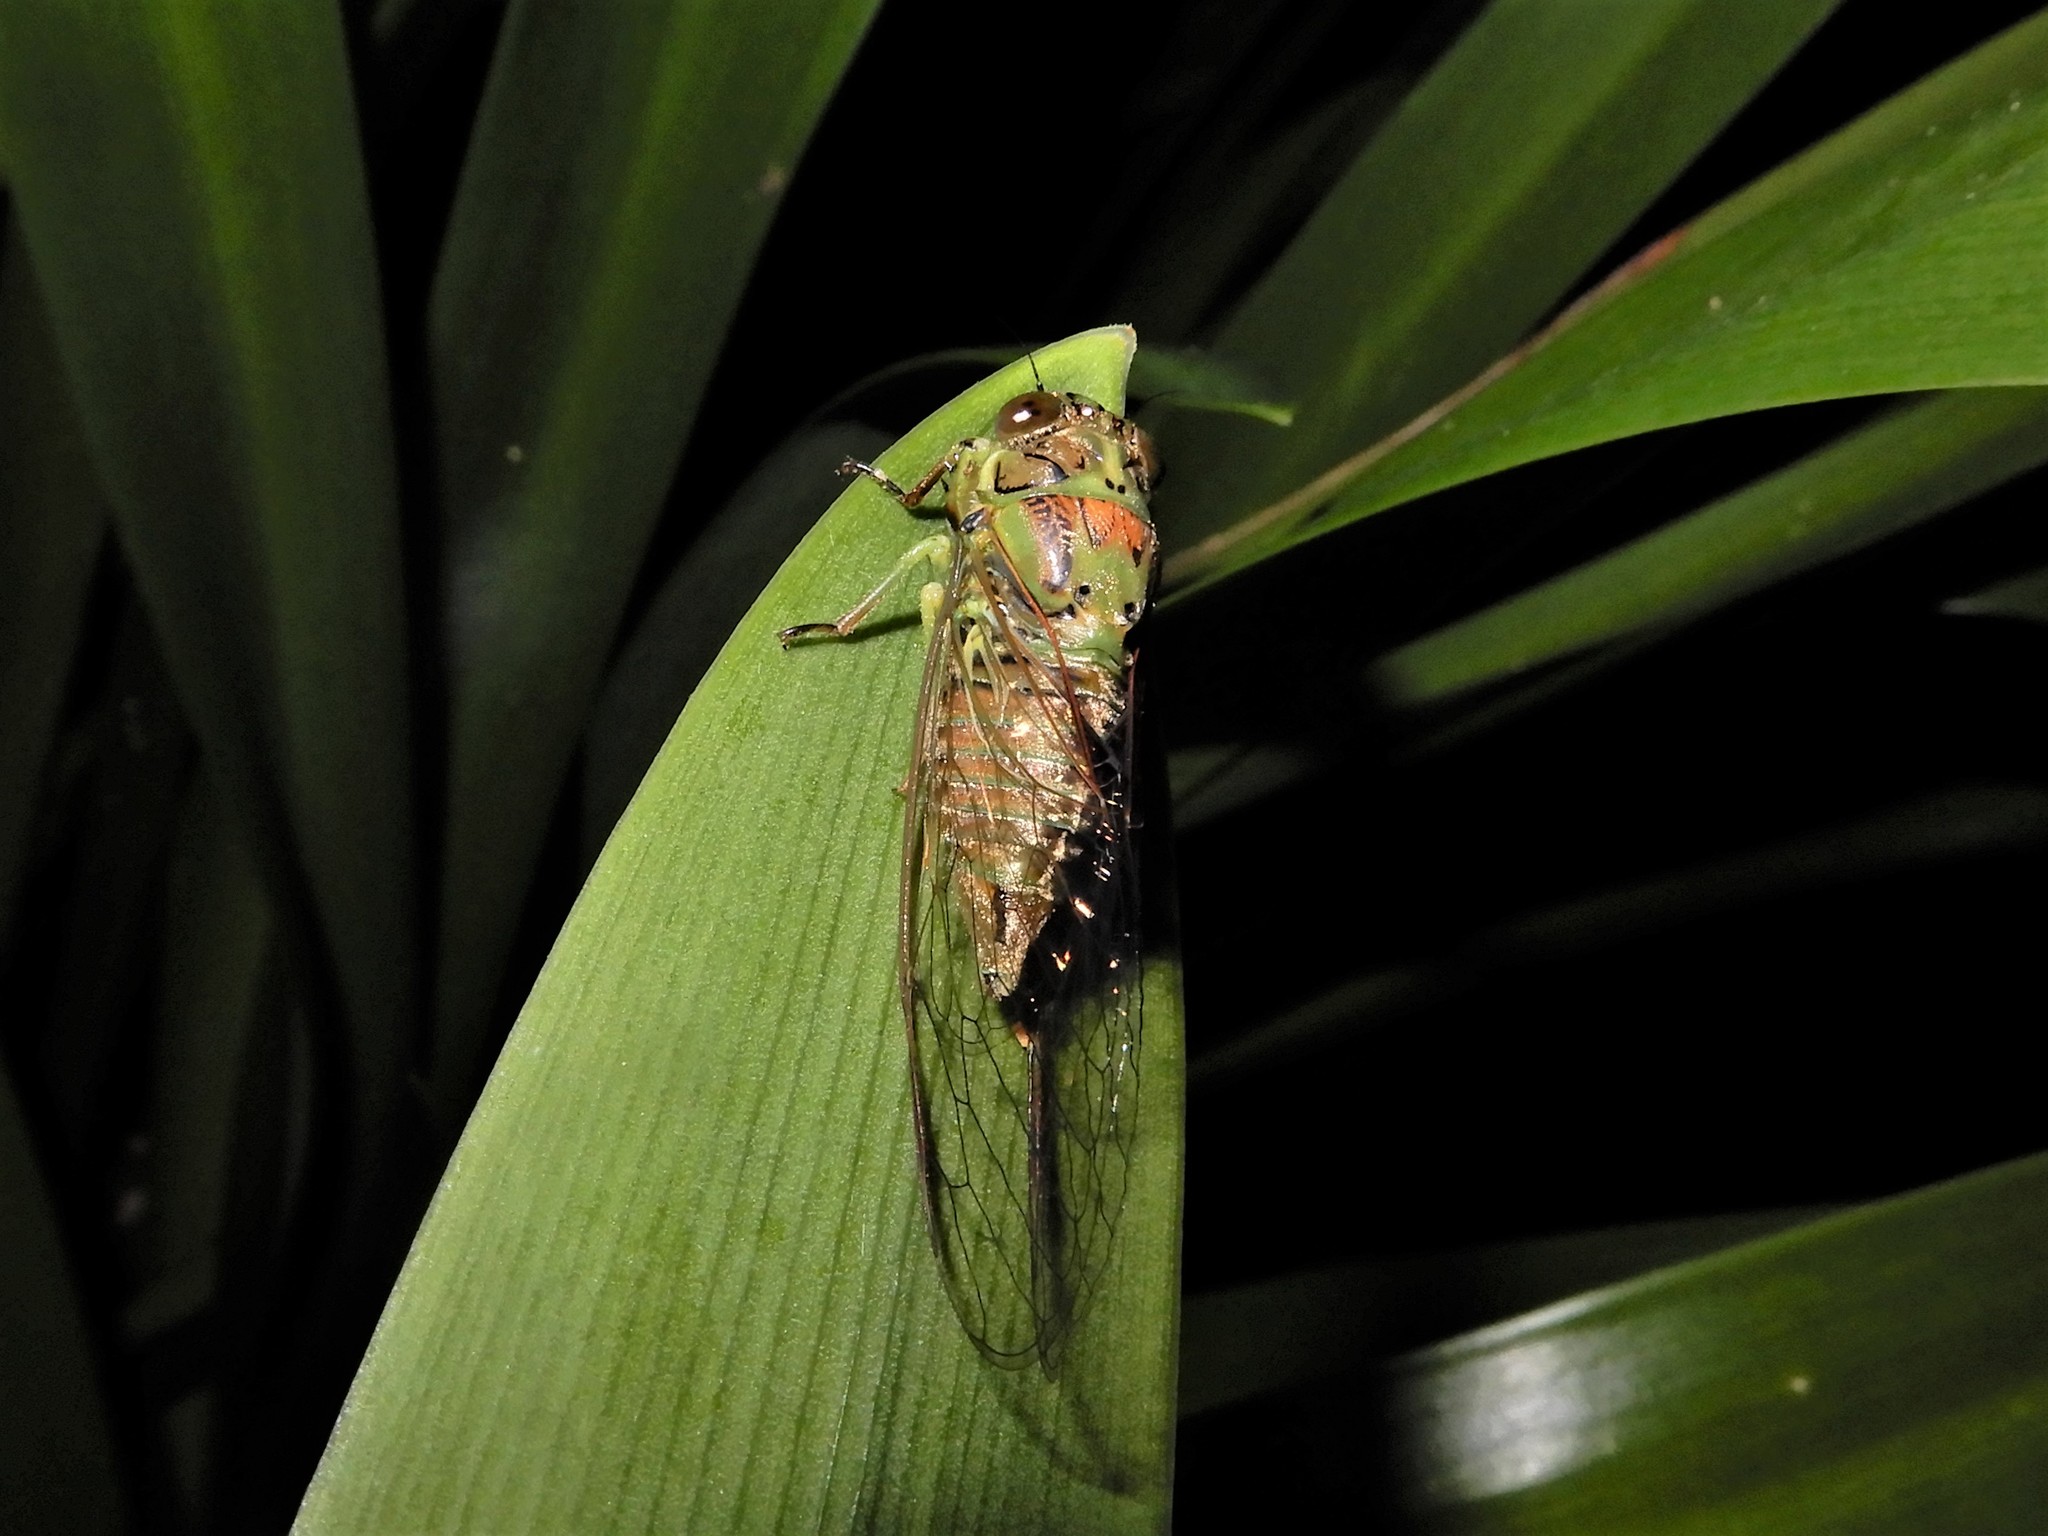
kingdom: Animalia
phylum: Arthropoda
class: Insecta
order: Hemiptera
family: Cicadidae
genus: Kikihia
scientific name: Kikihia scutellaris
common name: Lesser bronze cicada
